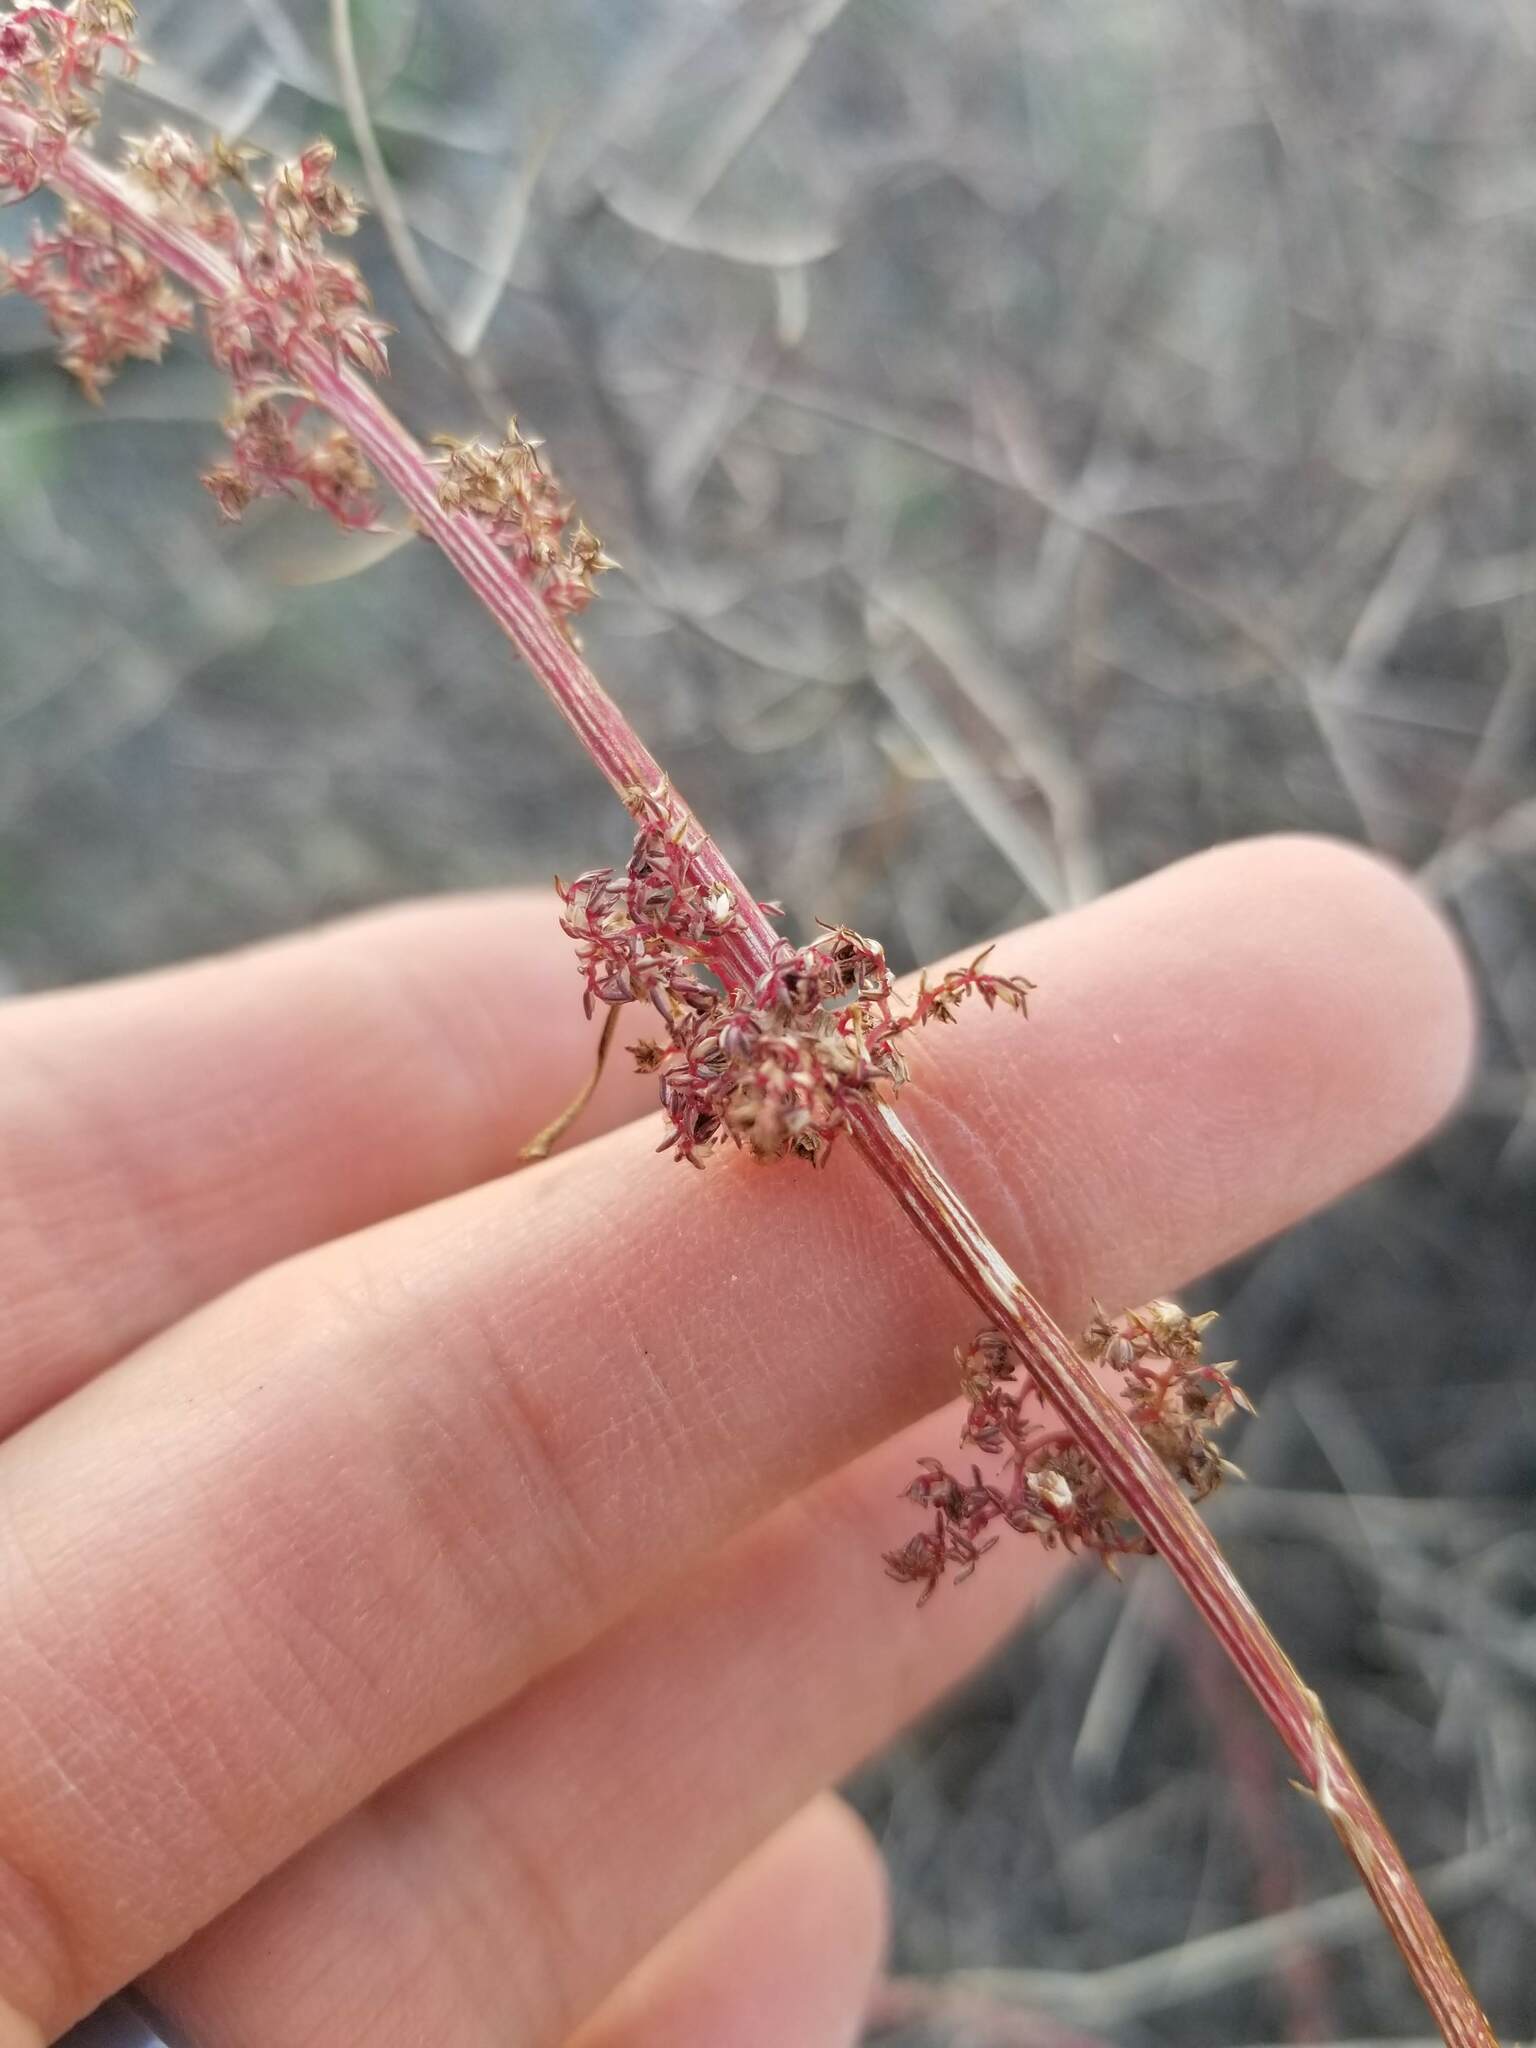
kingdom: Plantae
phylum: Tracheophyta
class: Magnoliopsida
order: Caryophyllales
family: Amaranthaceae
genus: Amaranthus
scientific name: Amaranthus fimbriatus
